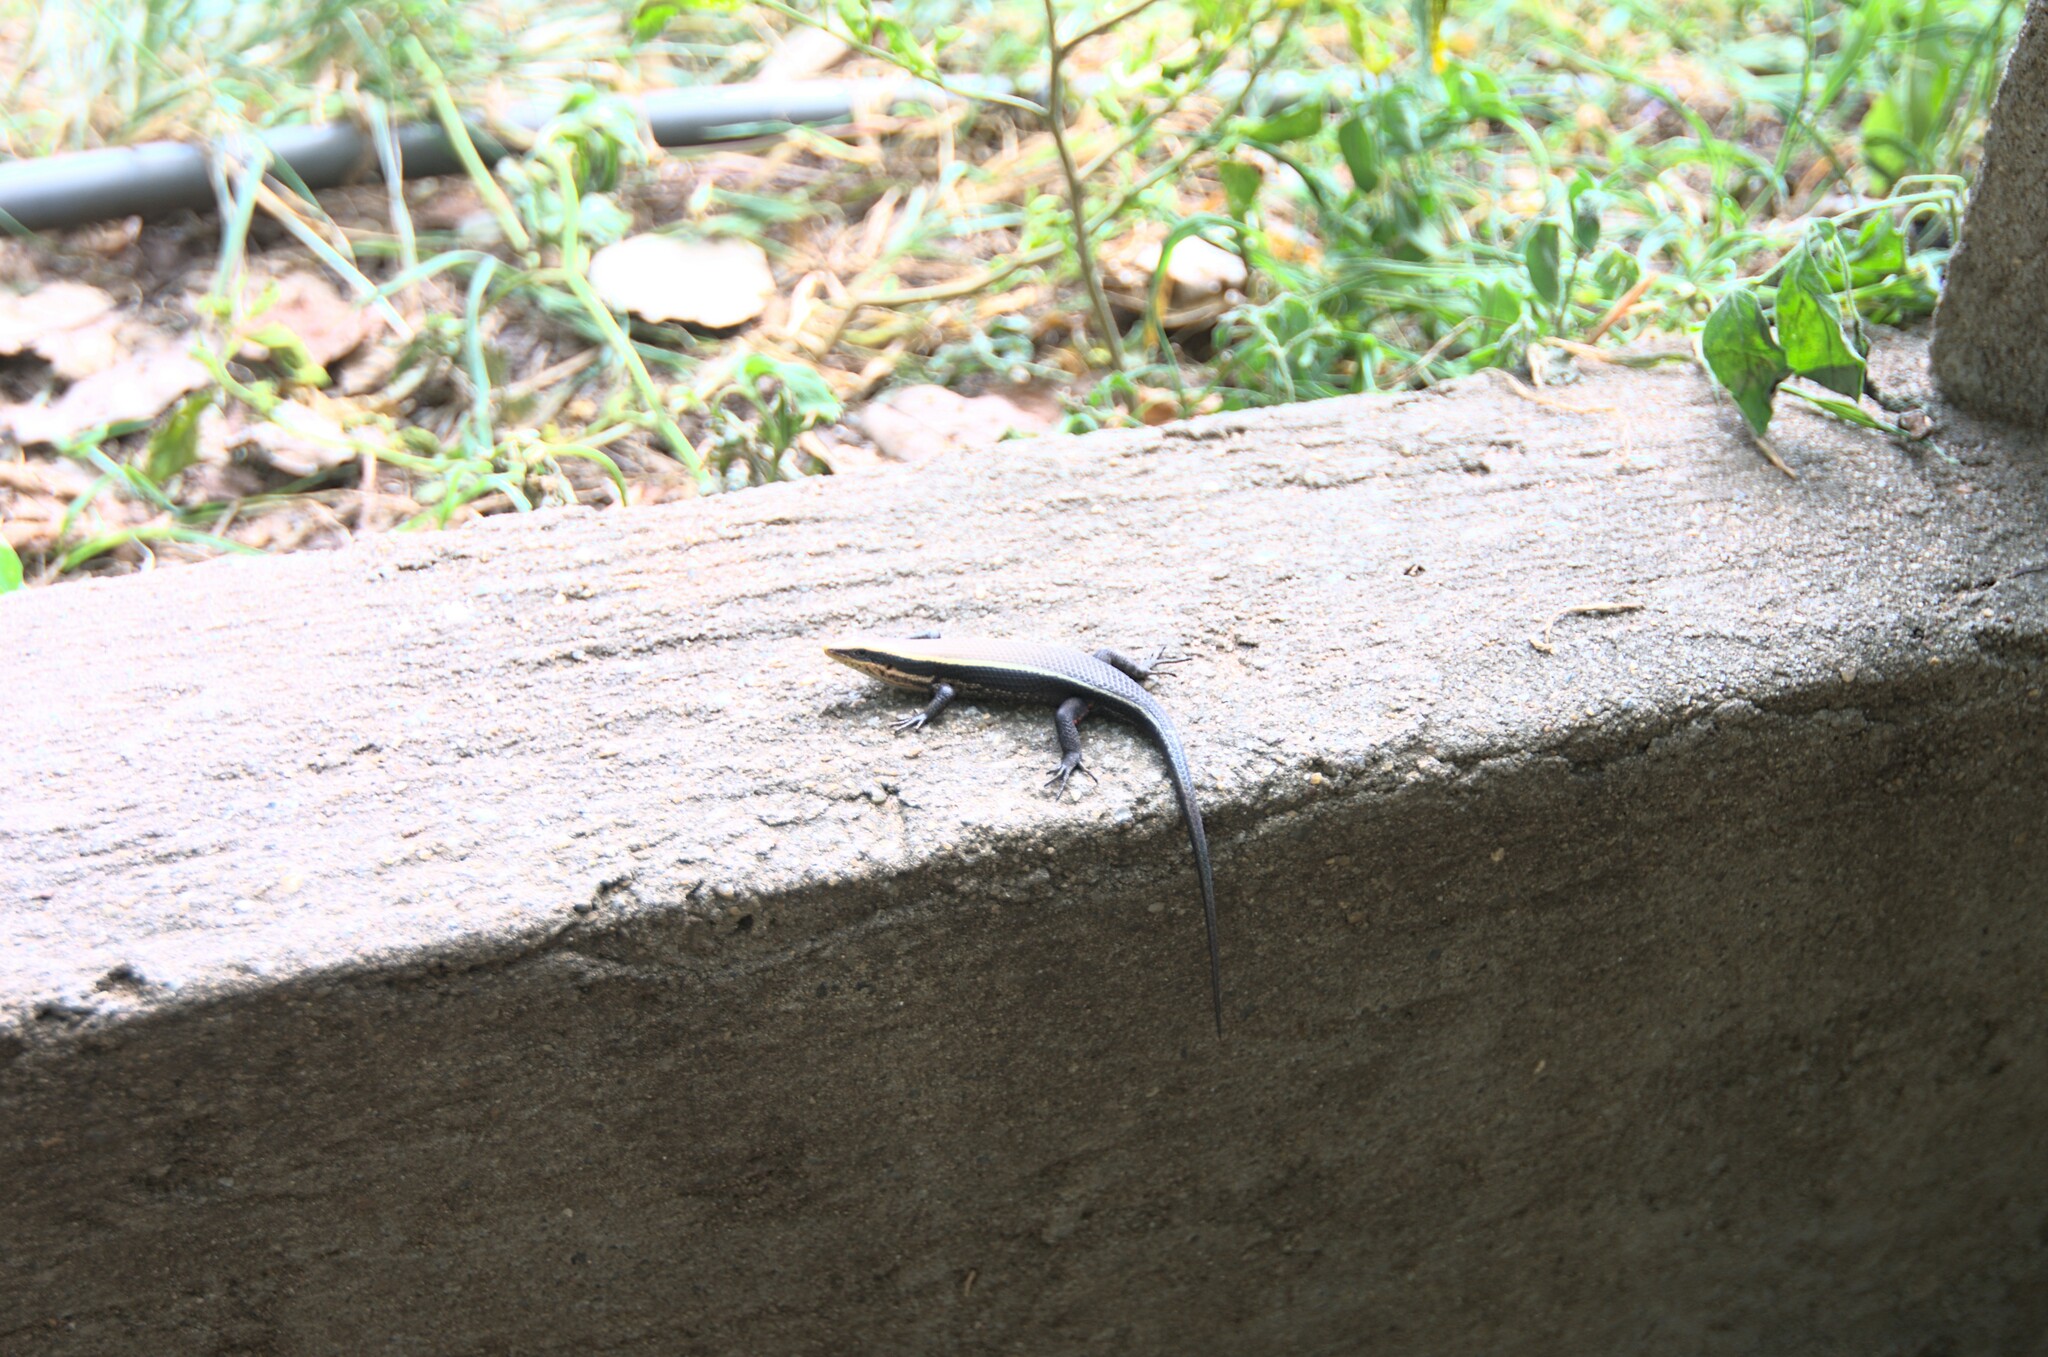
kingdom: Animalia
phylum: Chordata
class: Squamata
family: Scincidae
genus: Eutropis
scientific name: Eutropis madaraszi
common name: Sri lanka bronze skink
